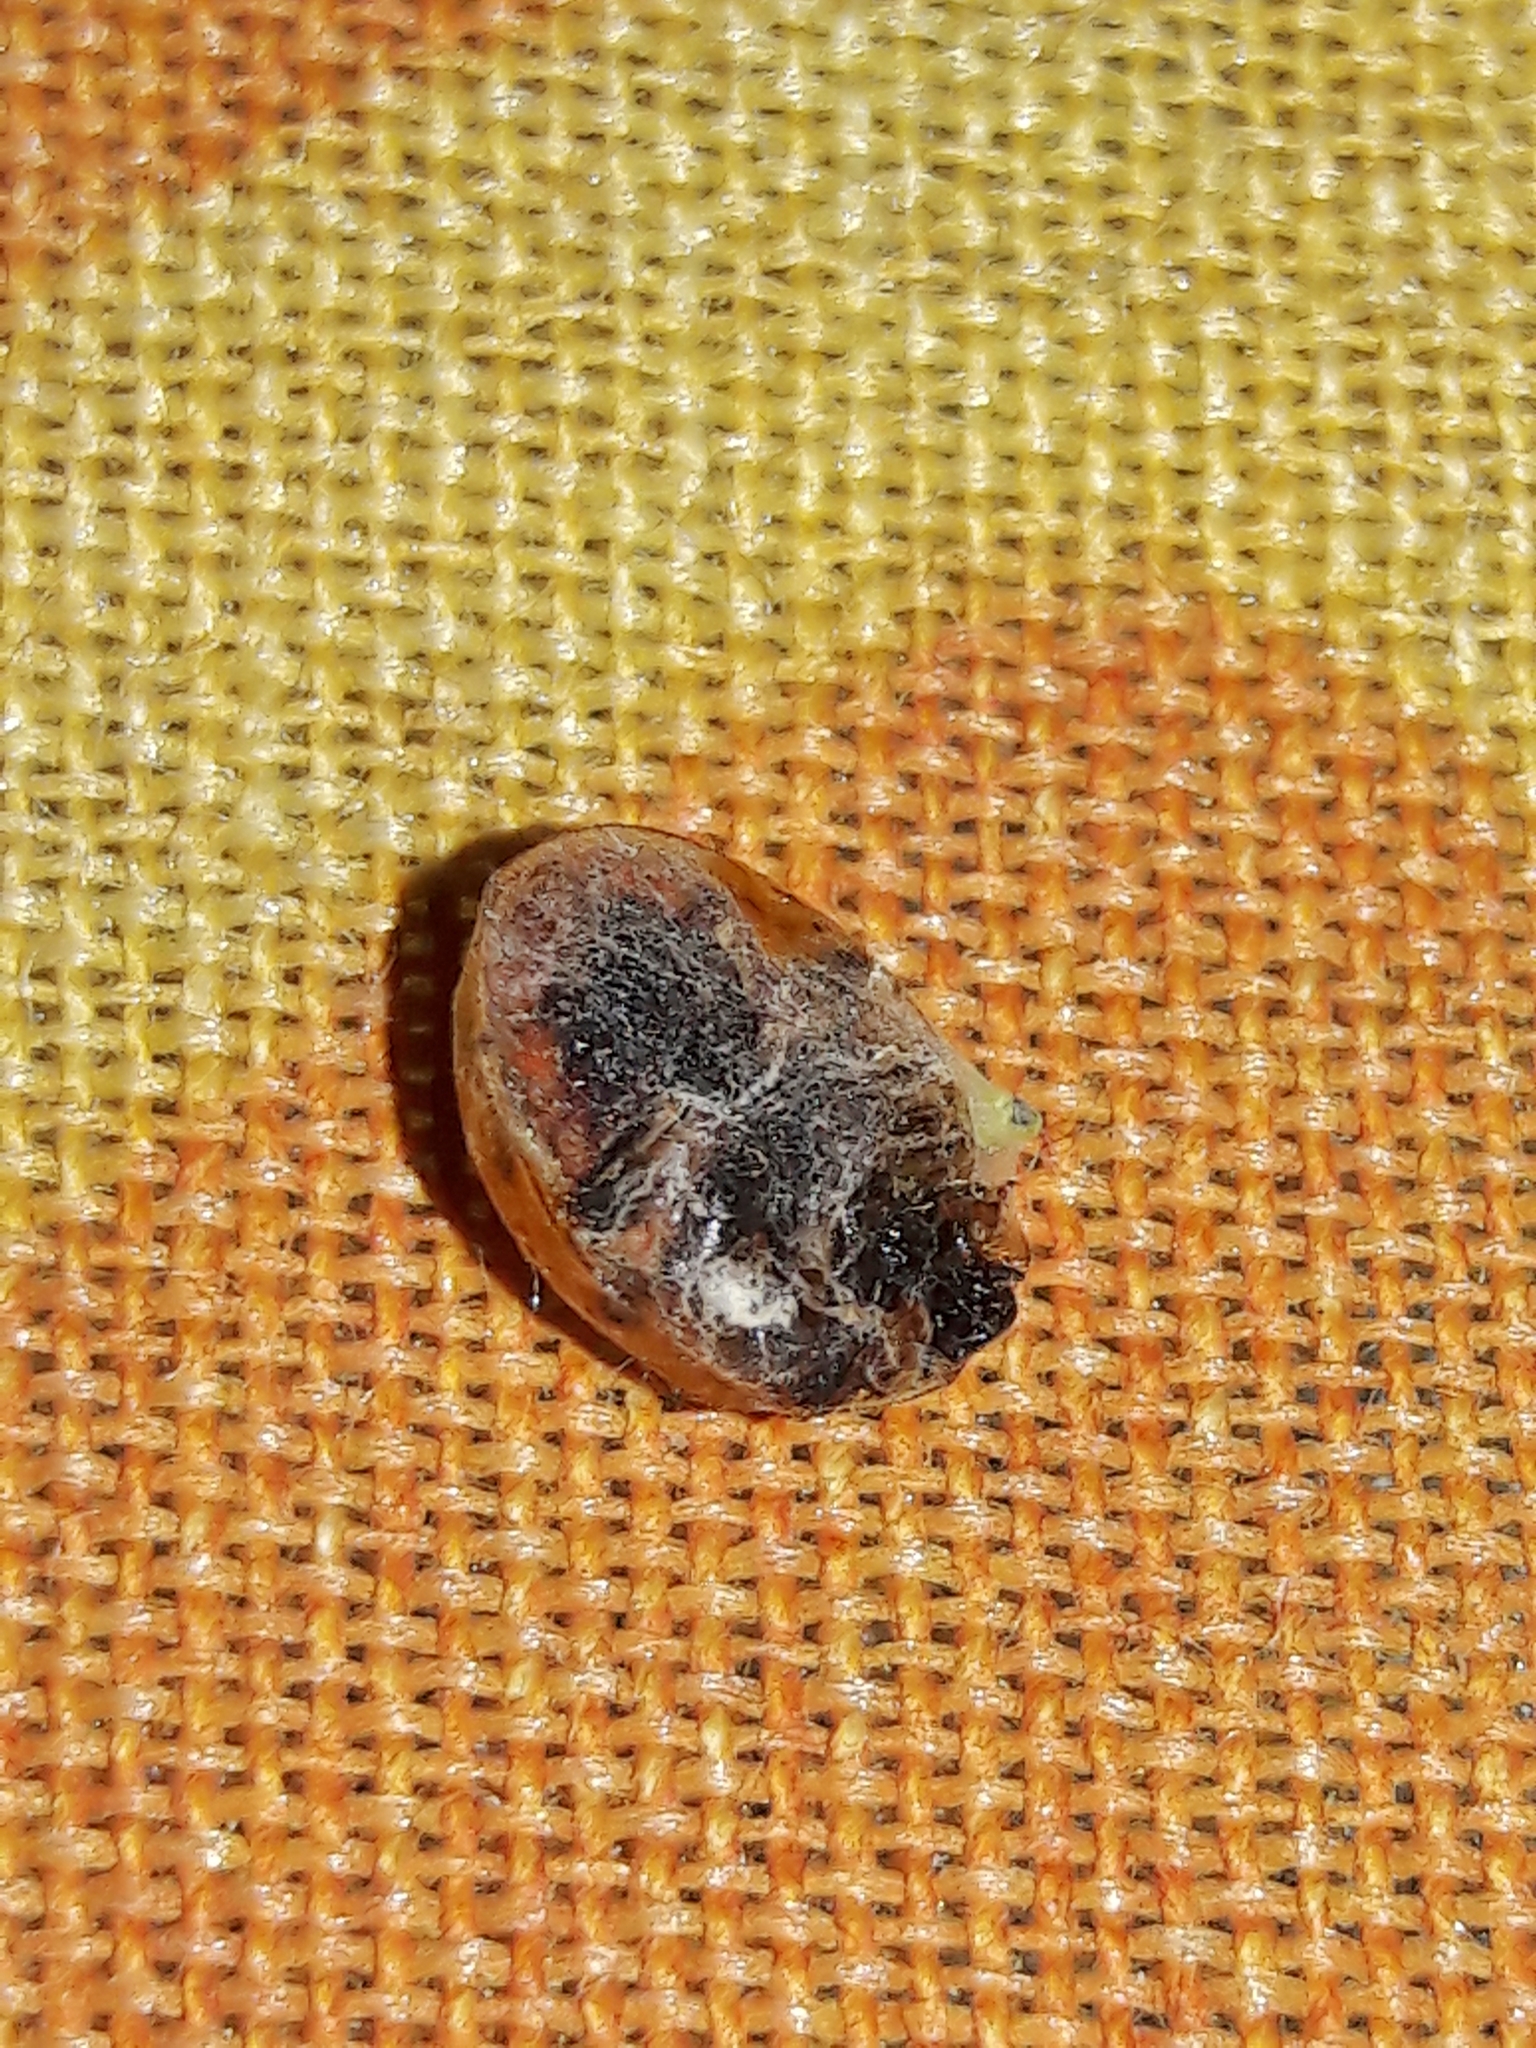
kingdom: Animalia
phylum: Arthropoda
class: Insecta
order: Coleoptera
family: Coccinellidae
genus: Harmonia
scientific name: Harmonia axyridis
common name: Harlequin ladybird
